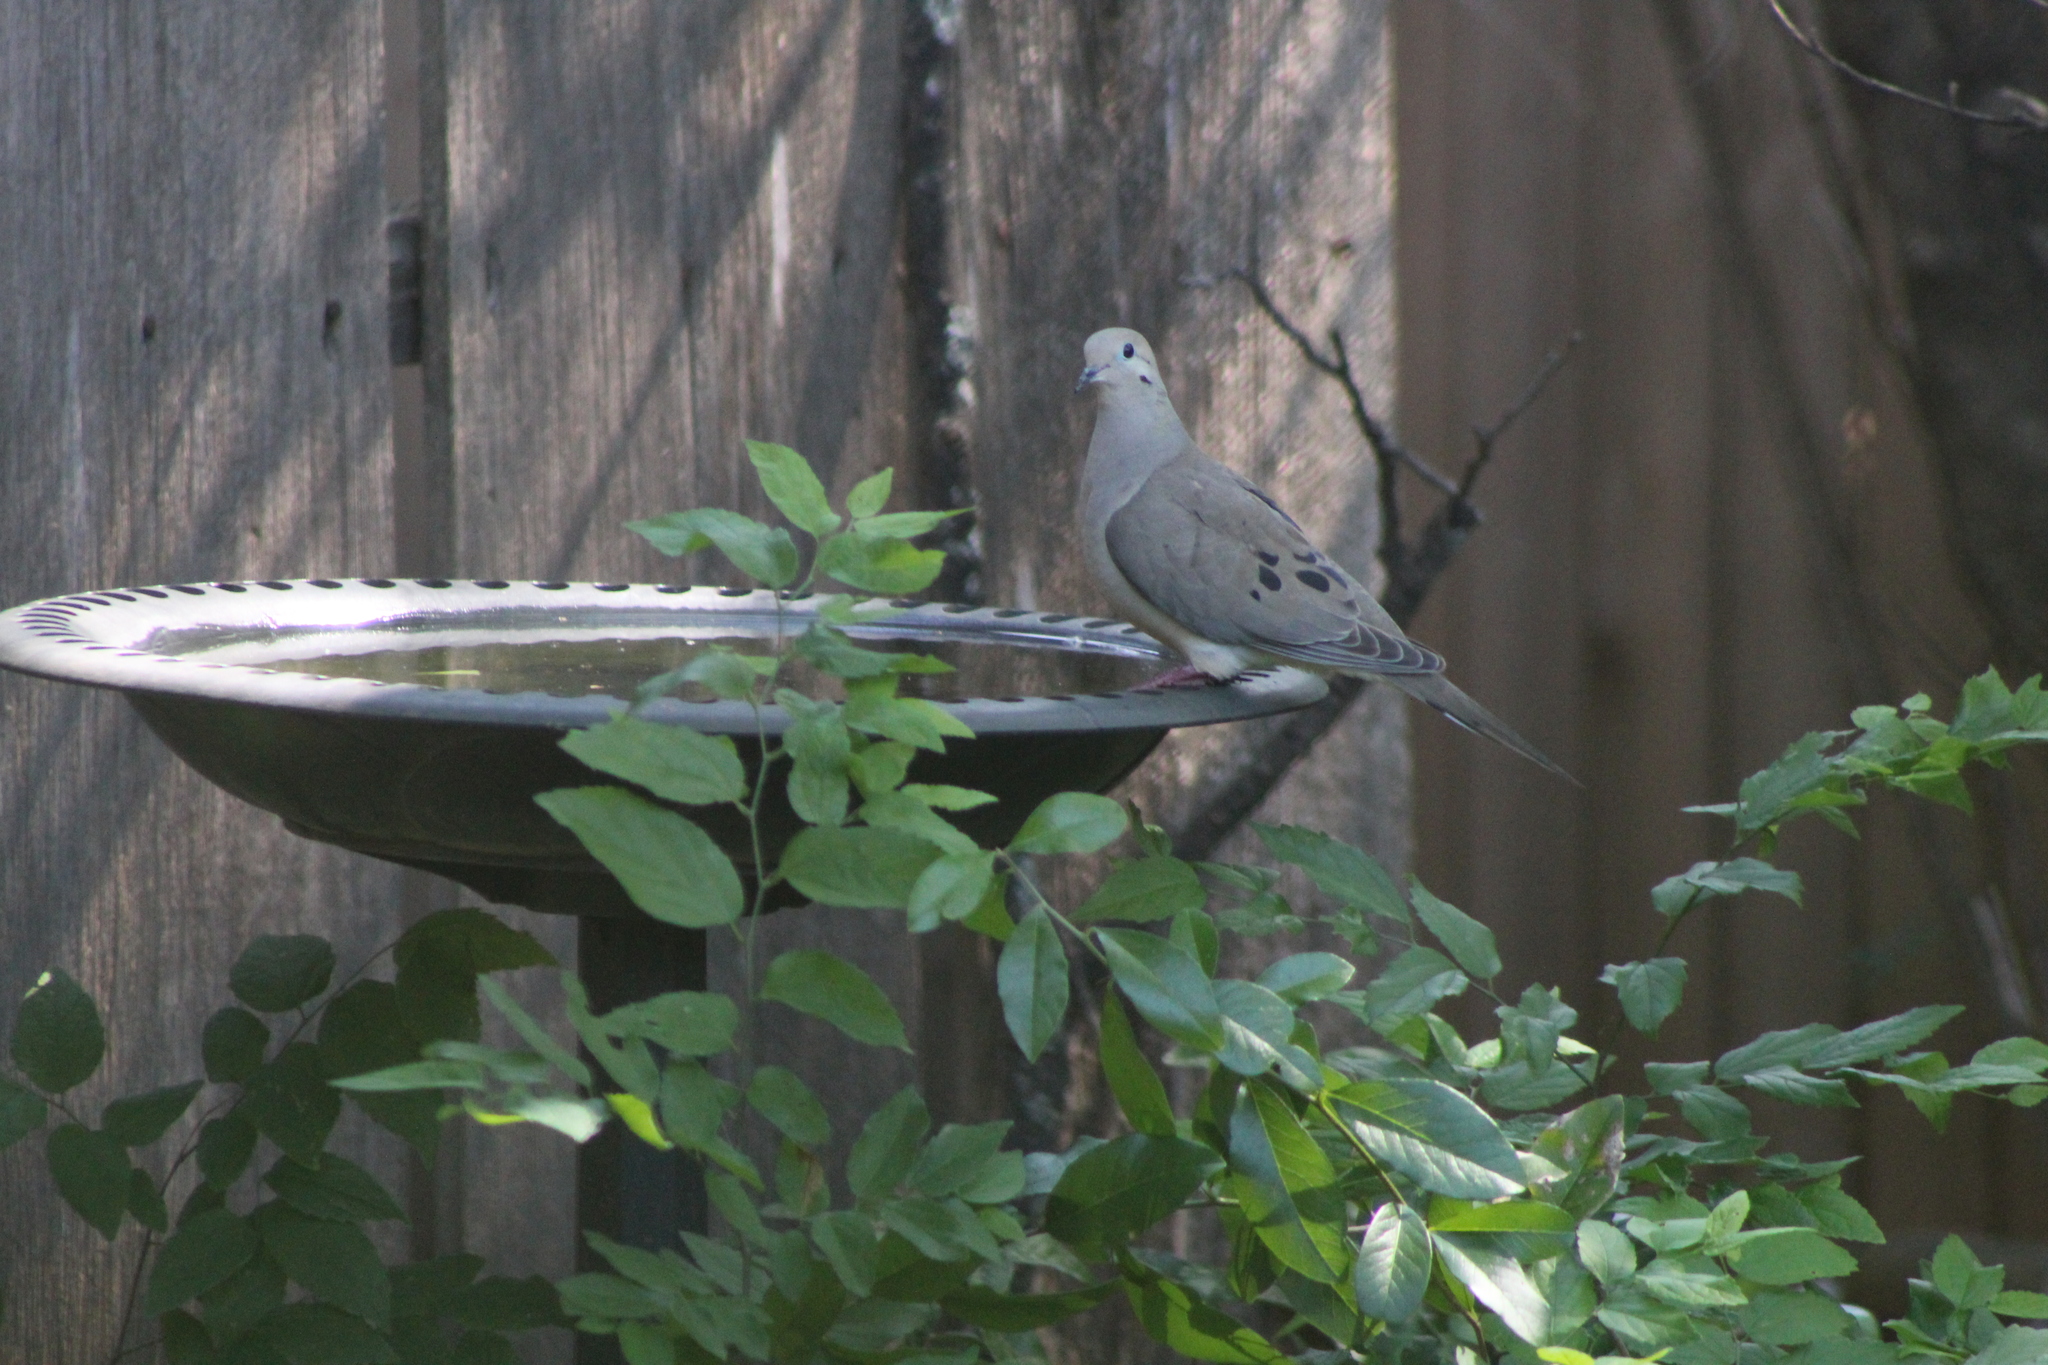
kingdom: Animalia
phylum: Chordata
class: Aves
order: Columbiformes
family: Columbidae
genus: Zenaida
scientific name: Zenaida macroura
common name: Mourning dove
